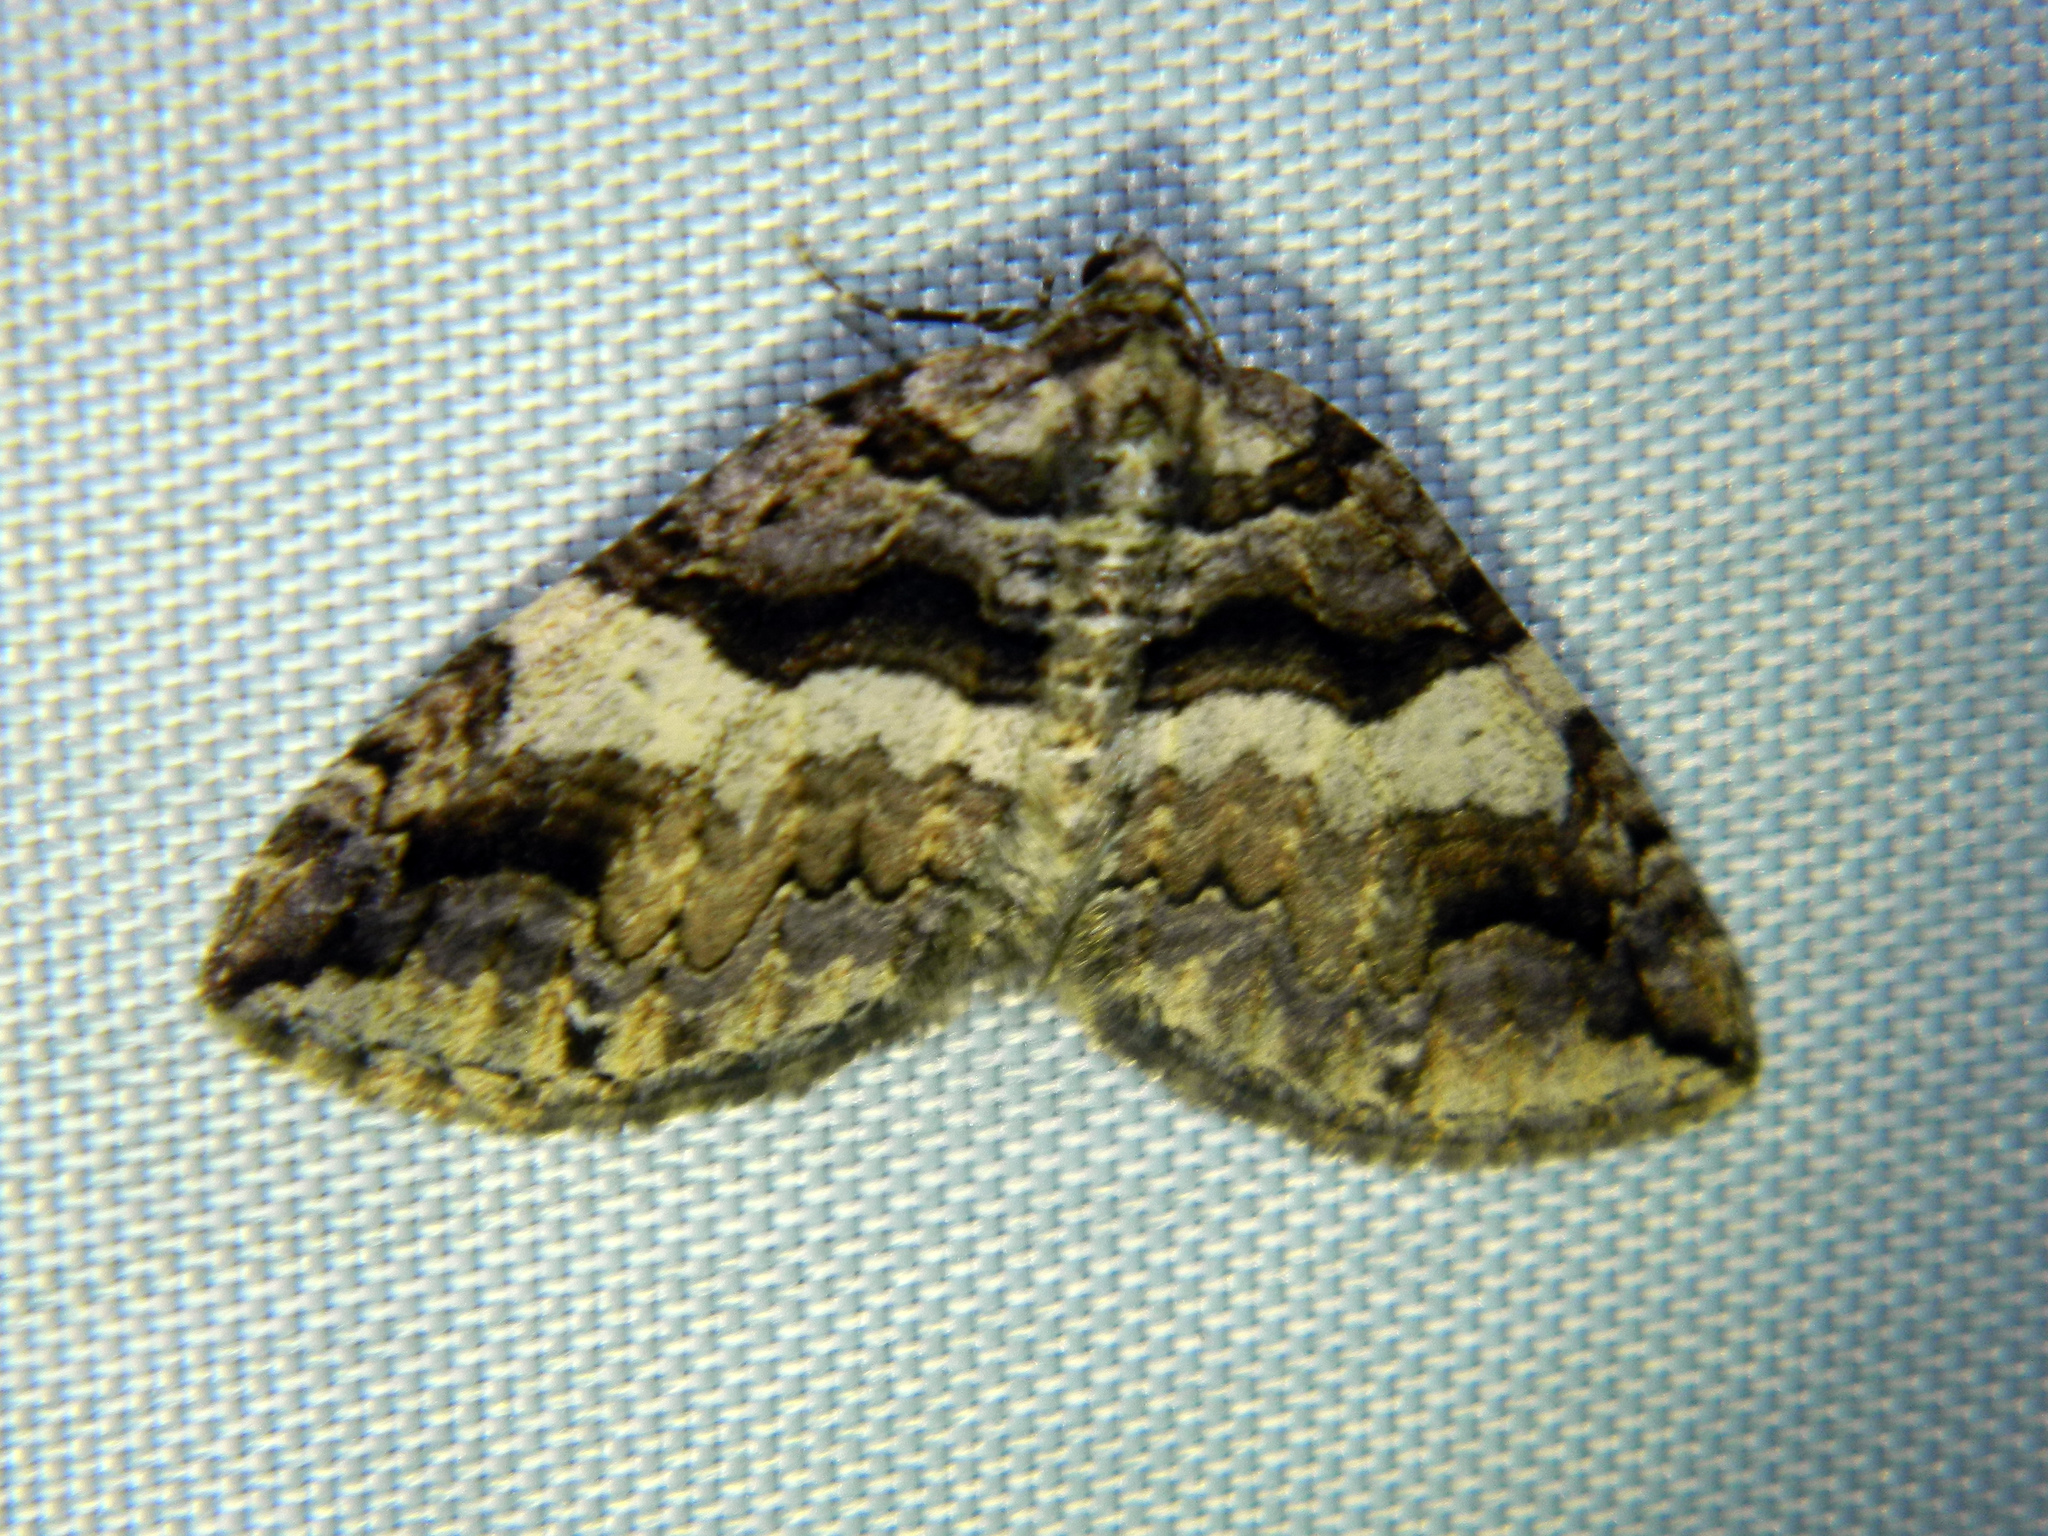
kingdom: Animalia
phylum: Arthropoda
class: Insecta
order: Lepidoptera
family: Geometridae
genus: Anticlea
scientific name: Anticlea vasiliata
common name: Variable carpet
